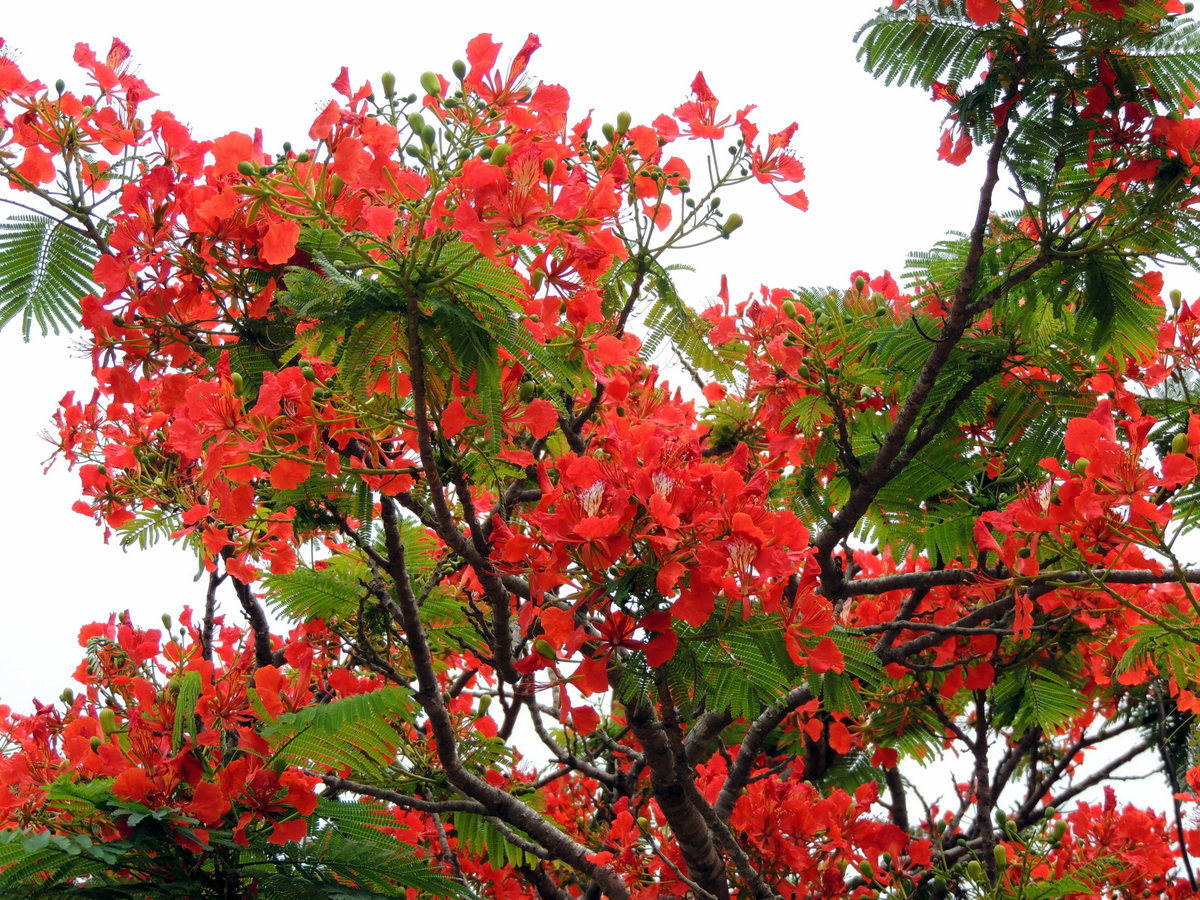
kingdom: Plantae
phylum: Tracheophyta
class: Magnoliopsida
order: Fabales
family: Fabaceae
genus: Delonix
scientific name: Delonix regia
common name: Royal poinciana
